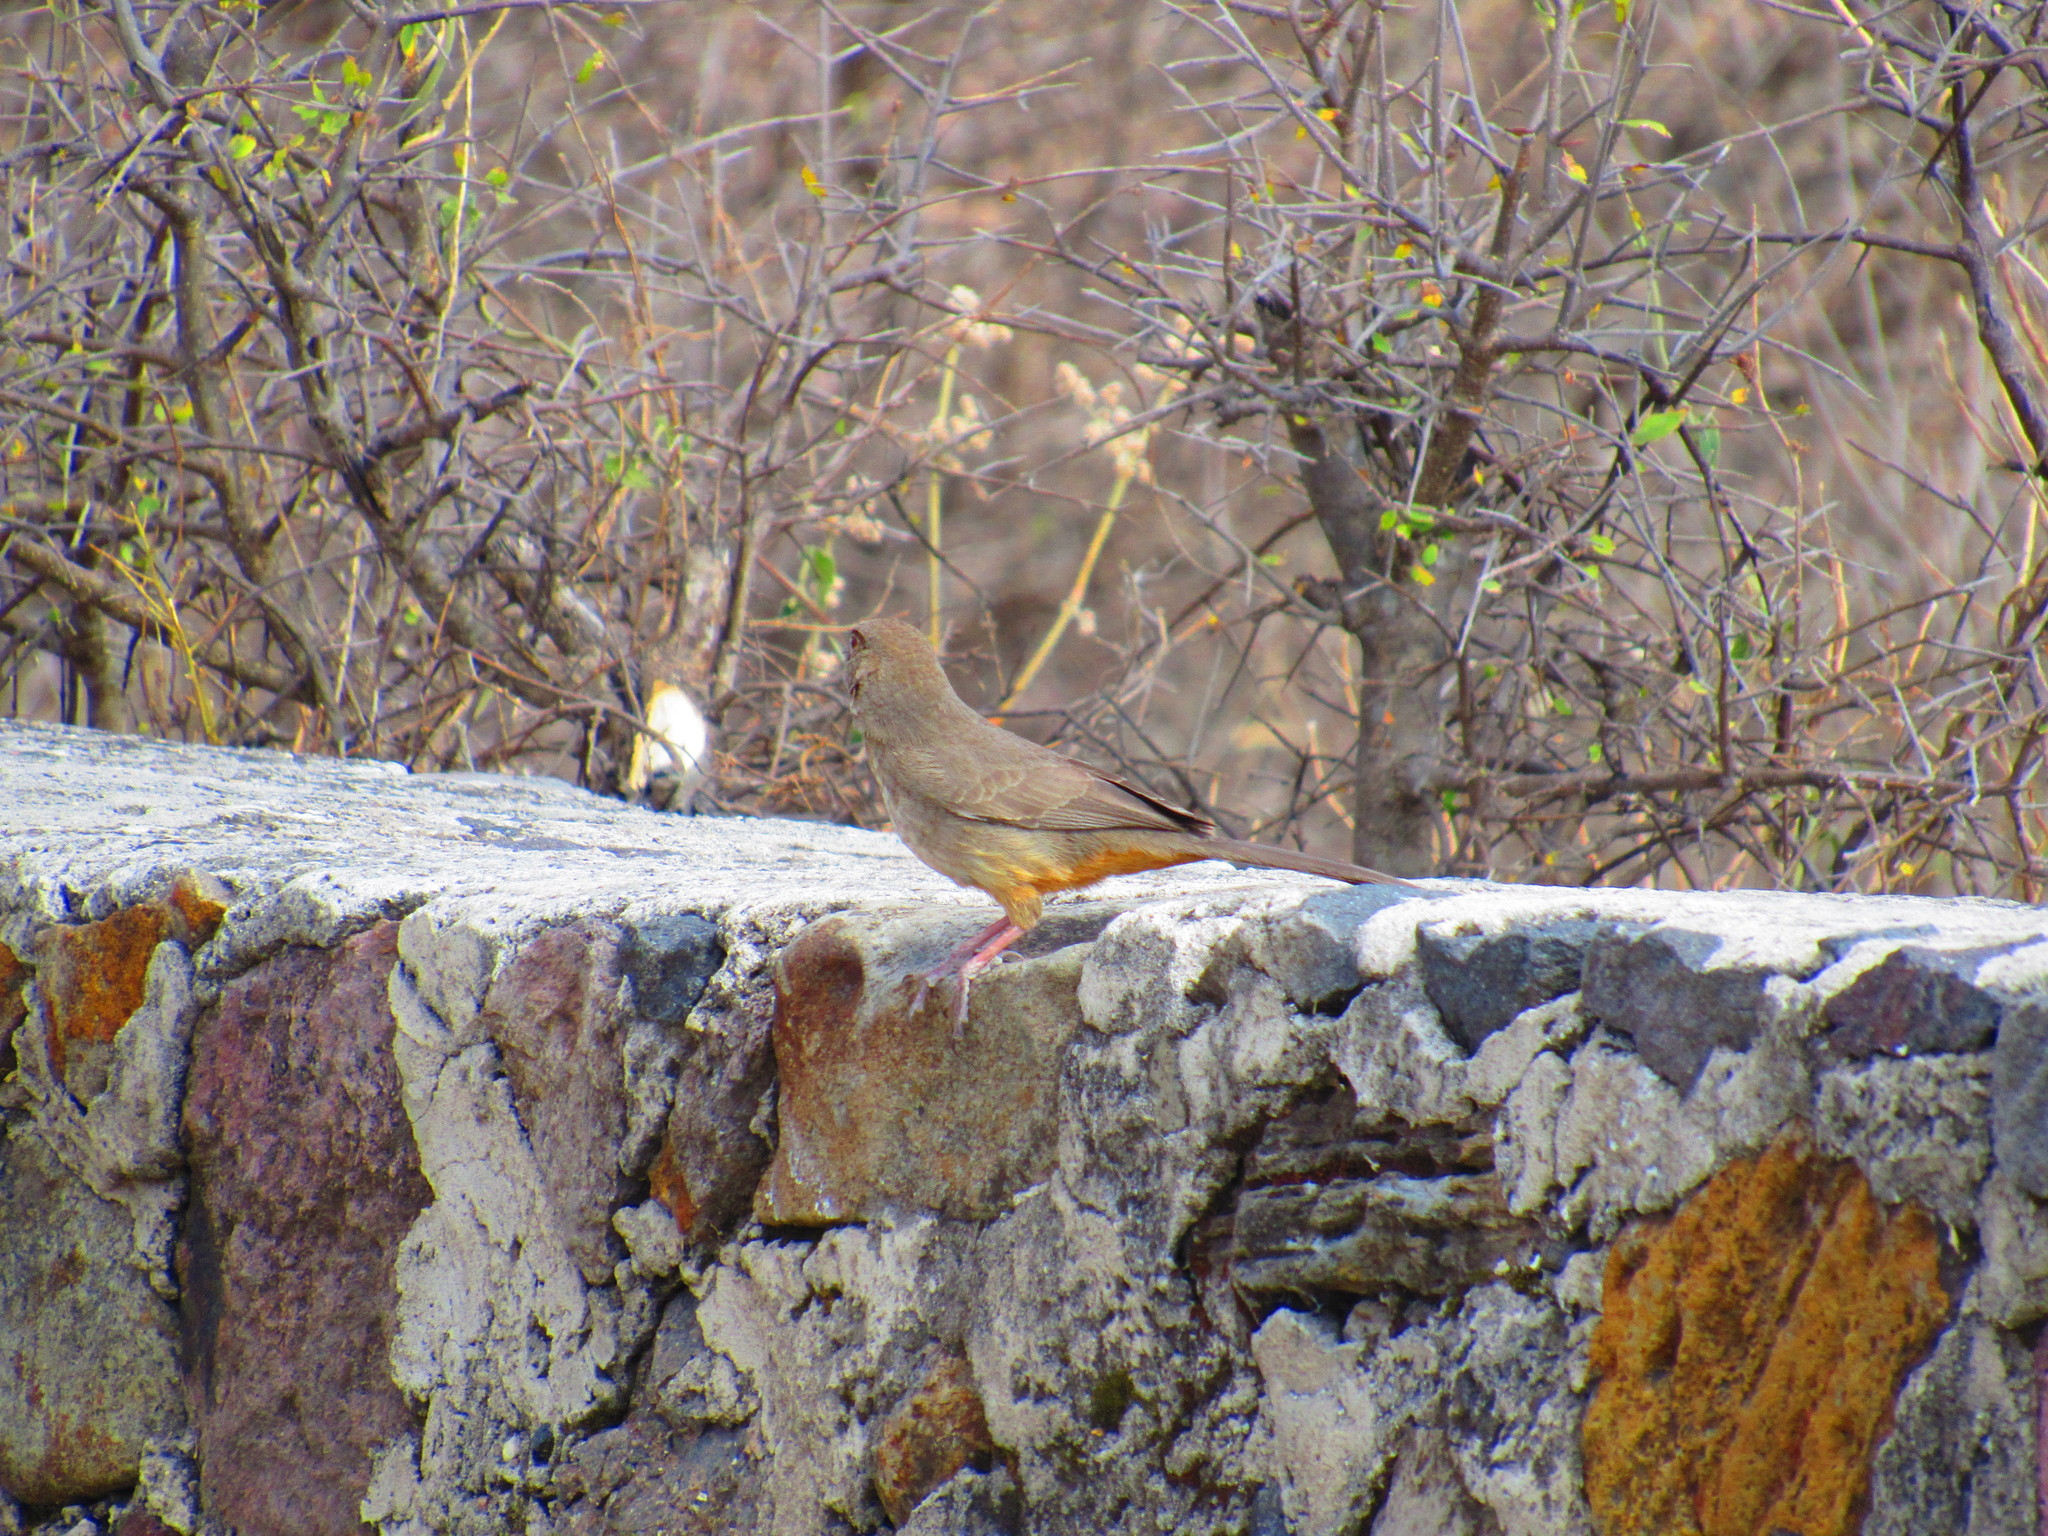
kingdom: Animalia
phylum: Chordata
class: Aves
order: Passeriformes
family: Passerellidae
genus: Melozone
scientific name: Melozone fusca
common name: Canyon towhee
